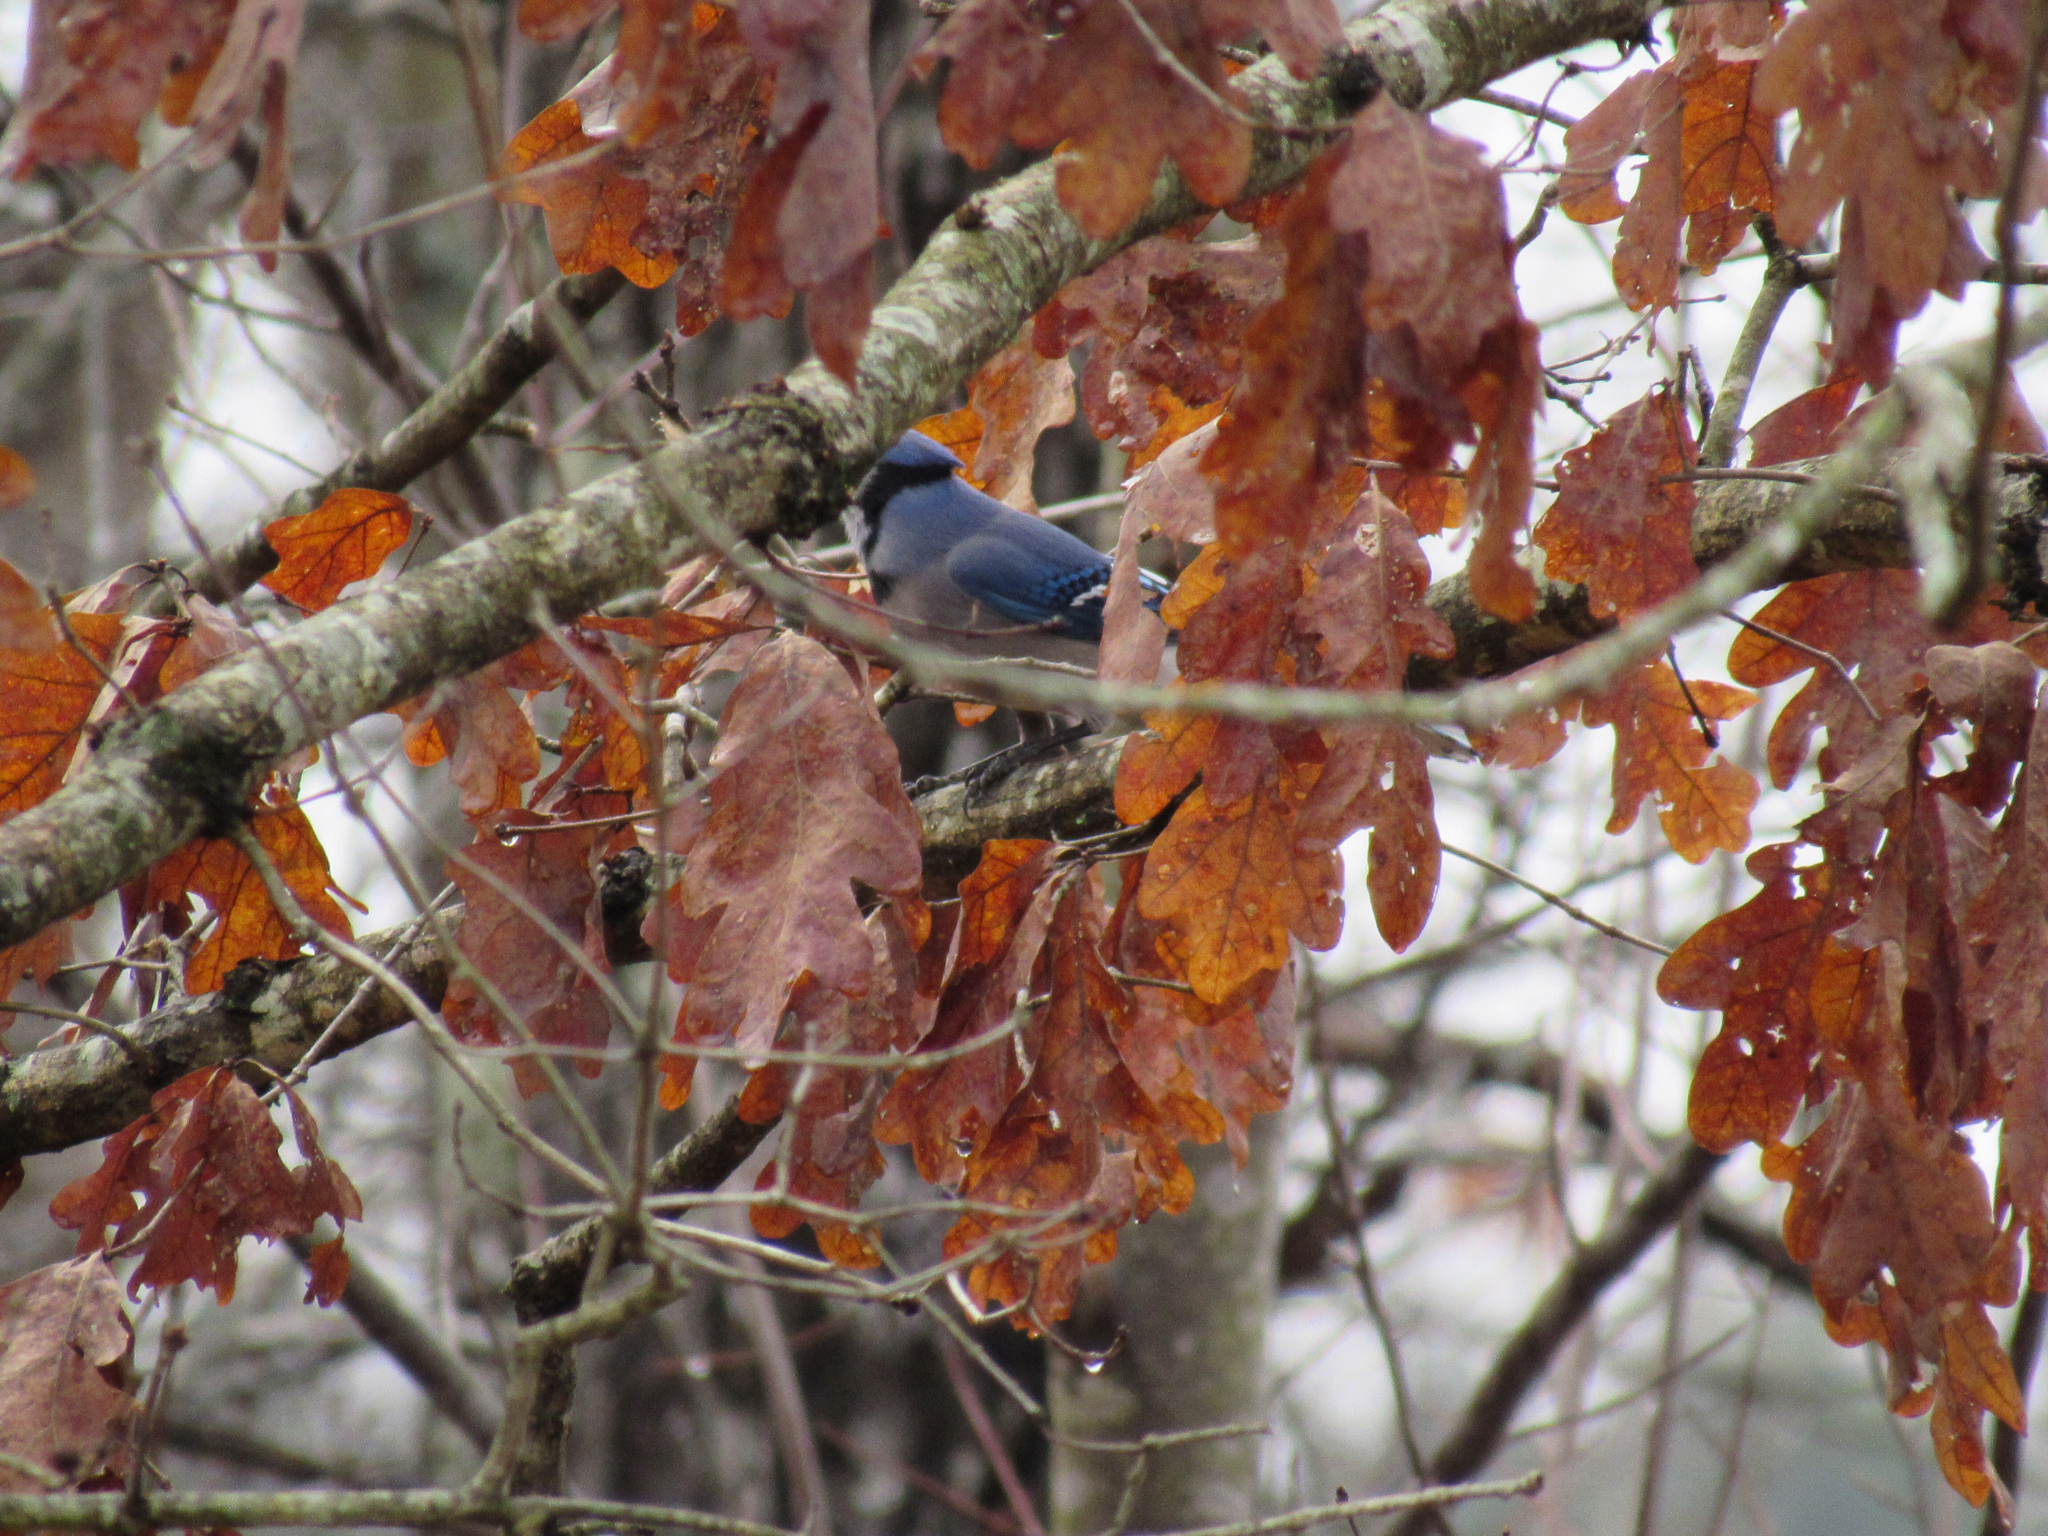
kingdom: Animalia
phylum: Chordata
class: Aves
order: Passeriformes
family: Corvidae
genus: Cyanocitta
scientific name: Cyanocitta cristata
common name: Blue jay
